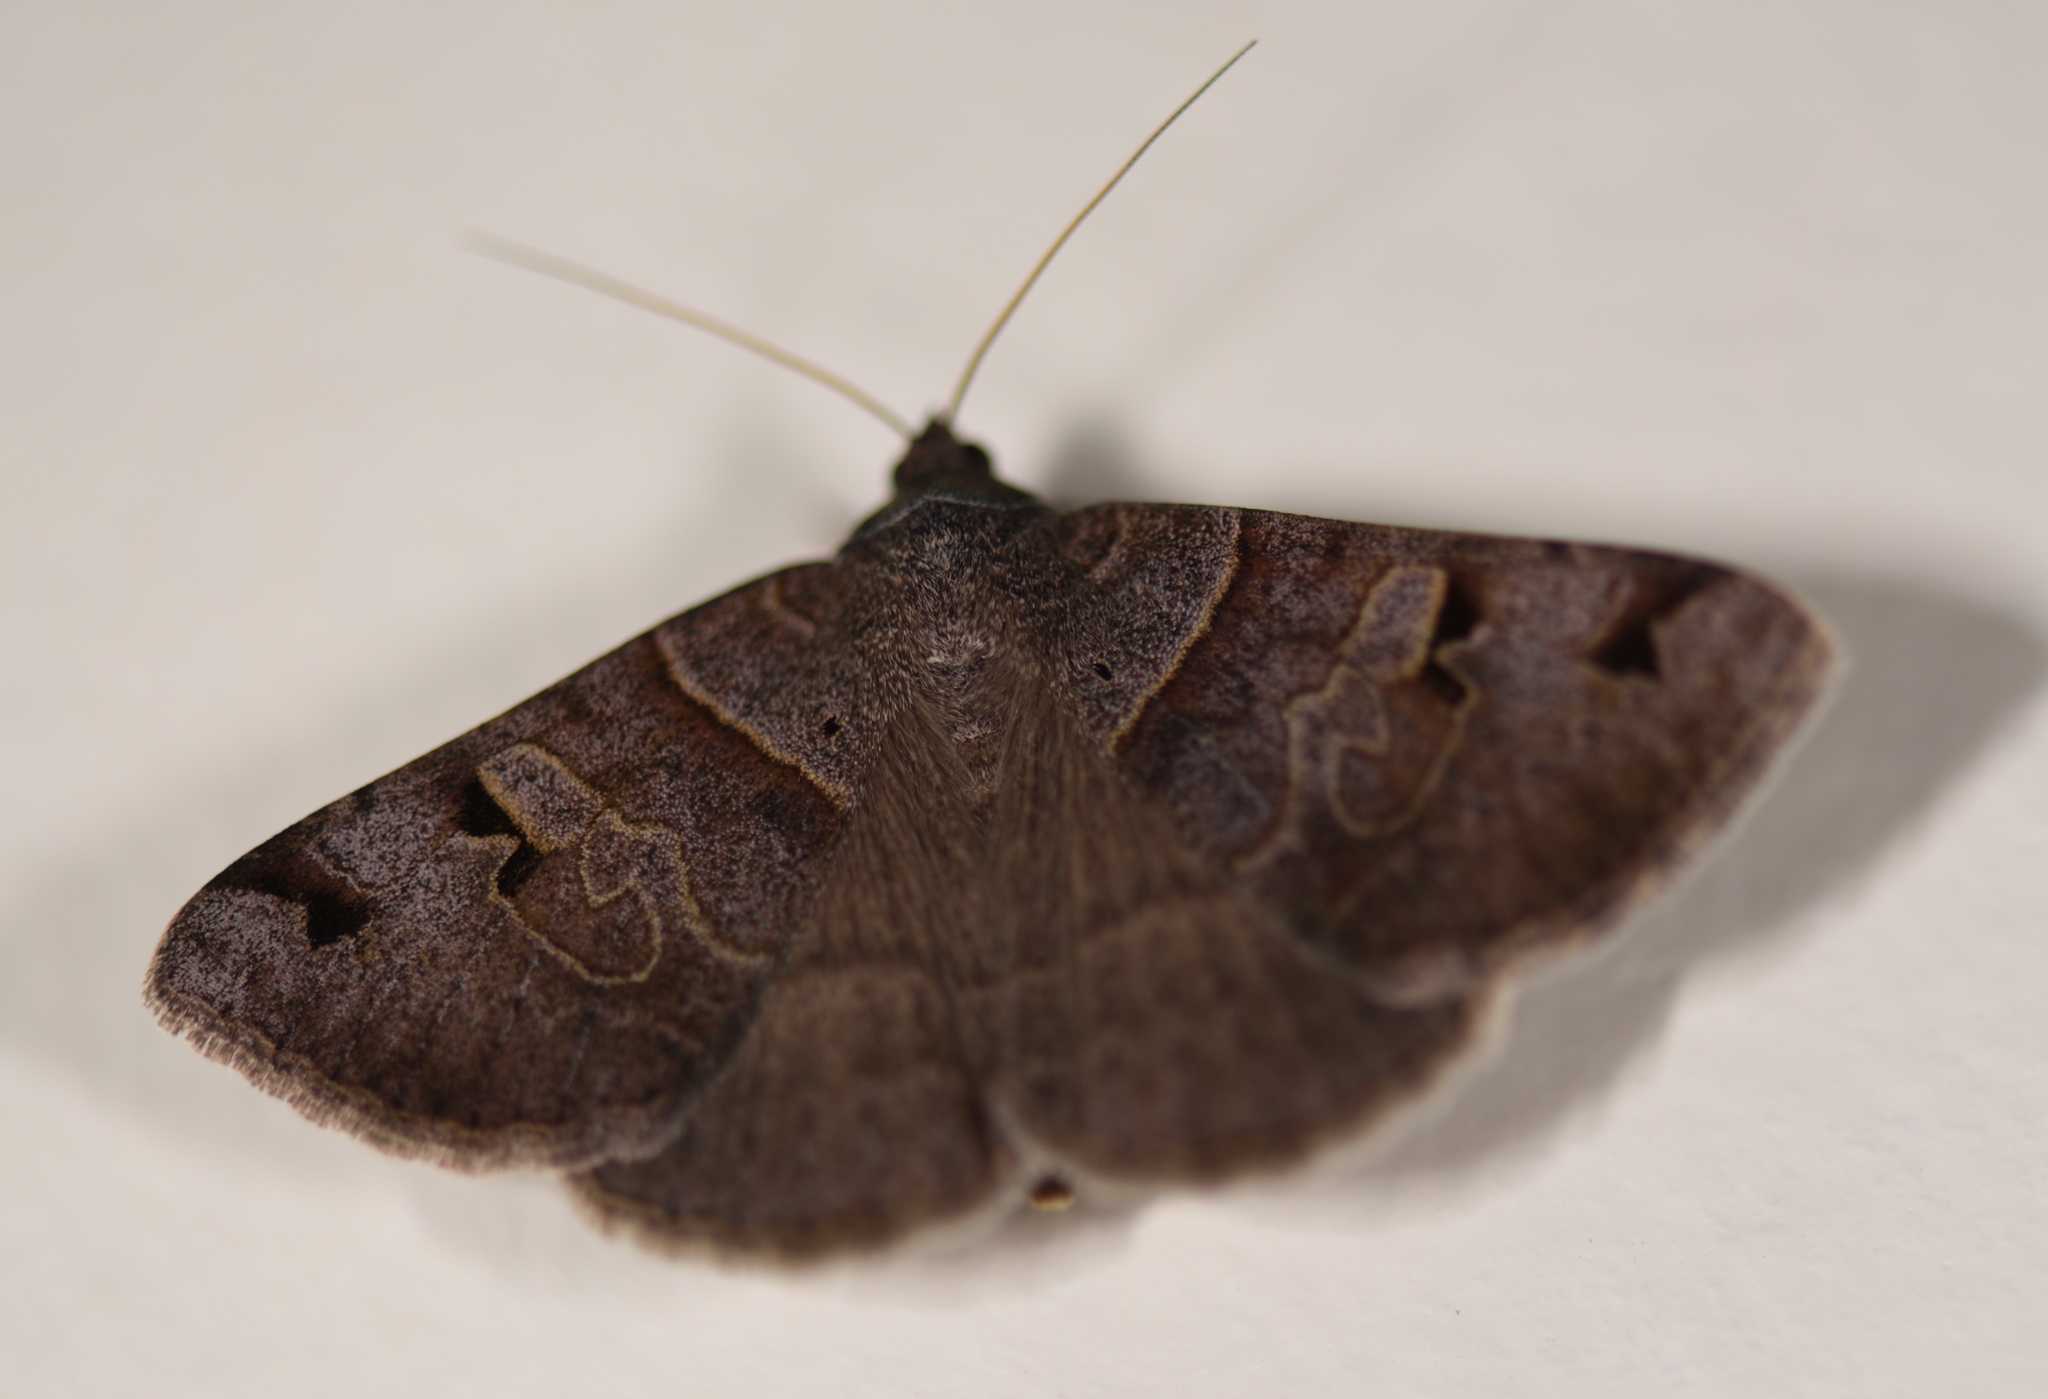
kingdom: Animalia
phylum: Arthropoda
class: Insecta
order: Lepidoptera
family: Erebidae
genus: Mocis
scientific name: Mocis mutuaria
